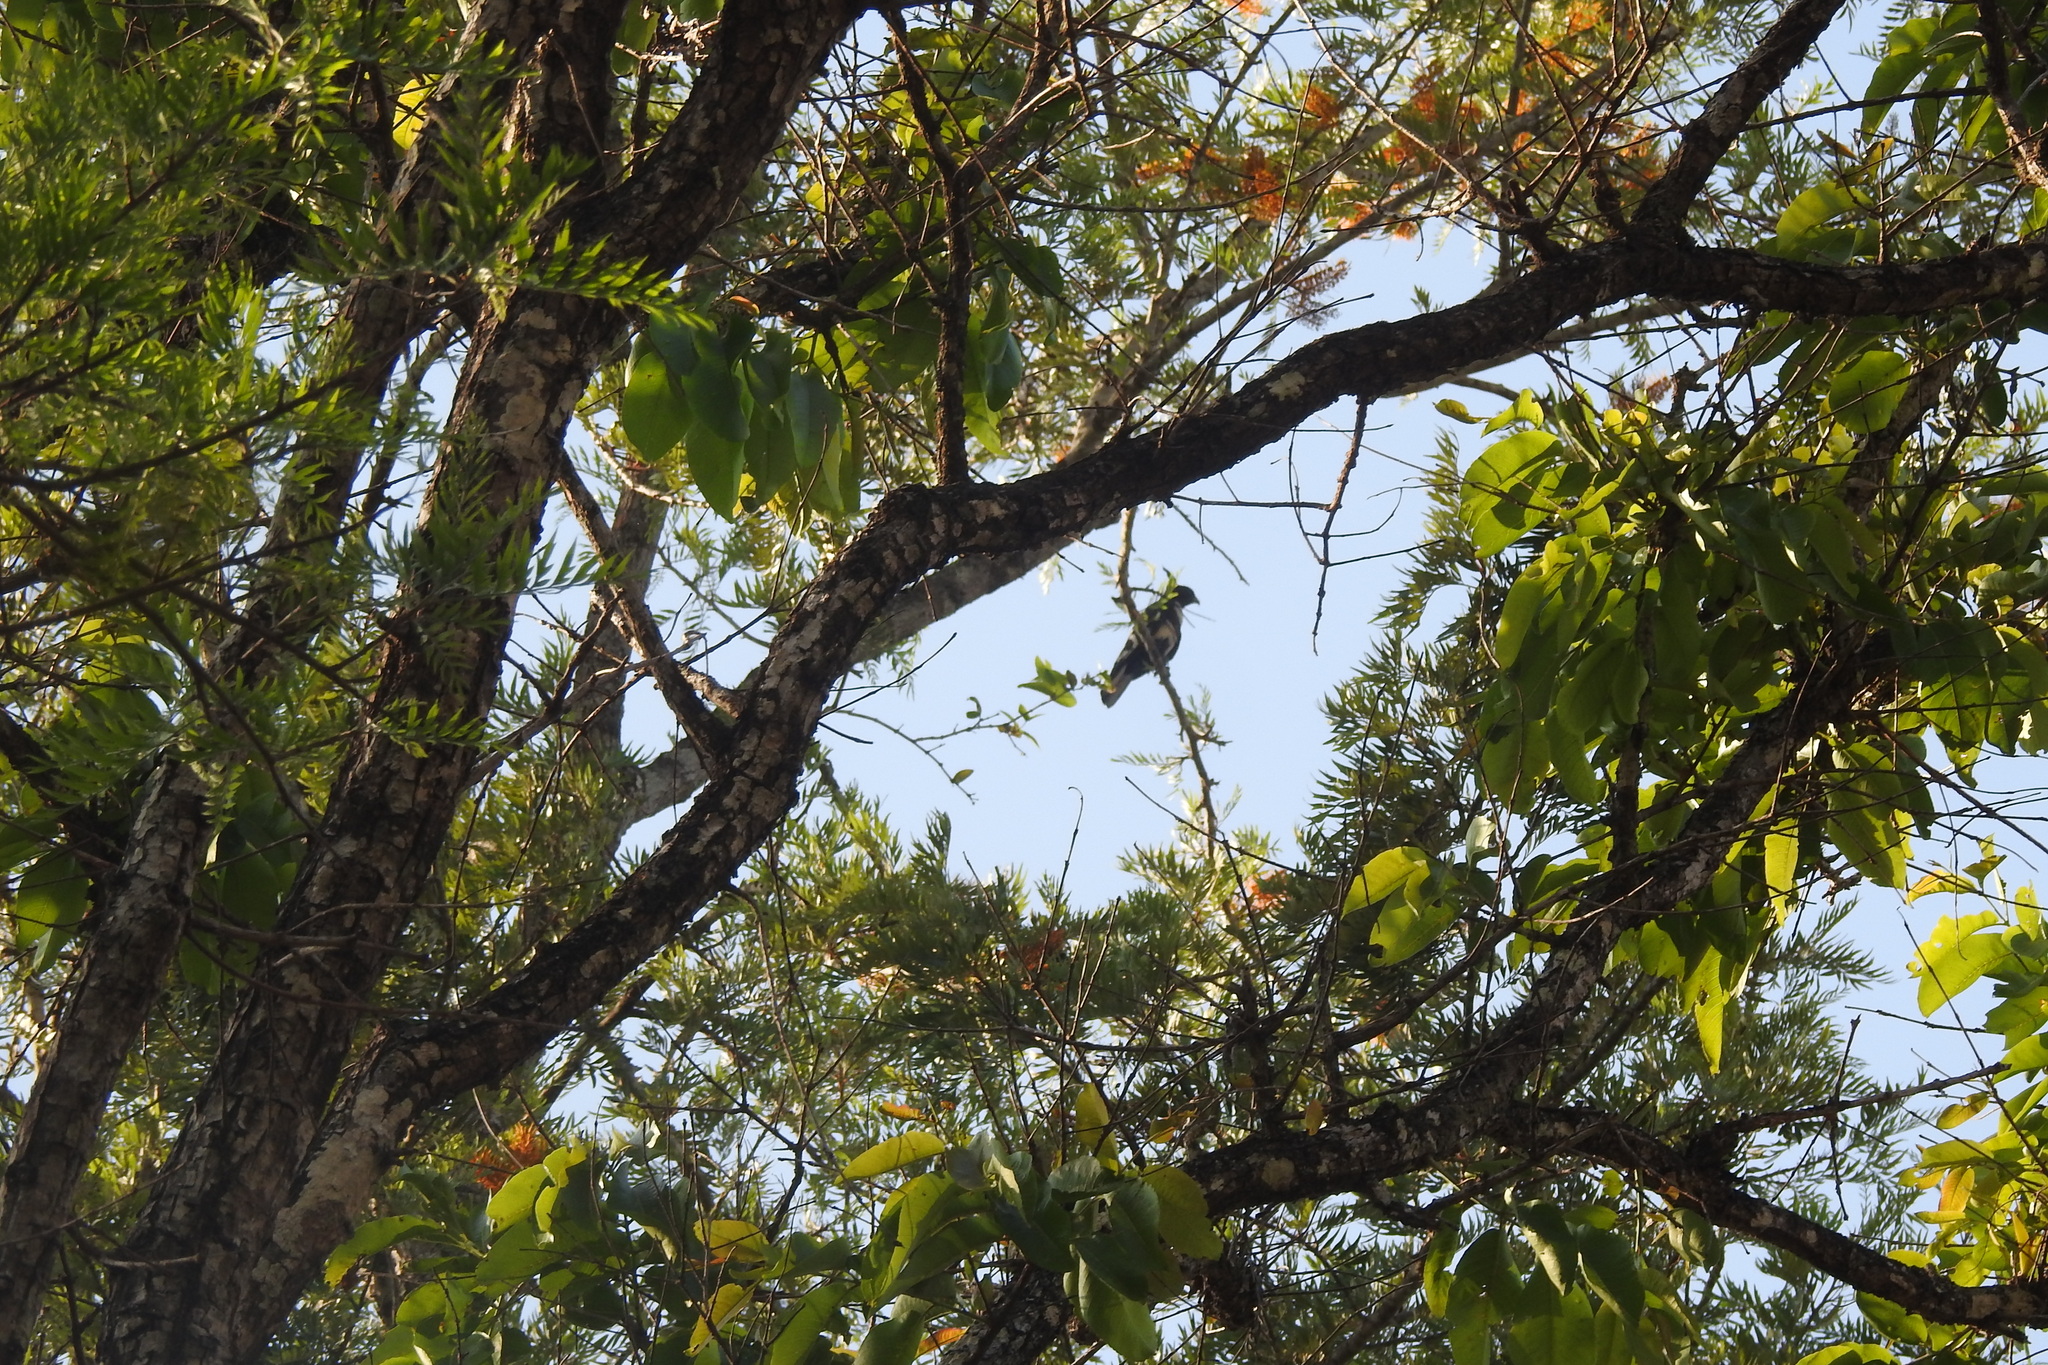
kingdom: Animalia
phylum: Chordata
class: Aves
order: Accipitriformes
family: Accipitridae
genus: Aviceda
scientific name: Aviceda leuphotes
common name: Black baza
